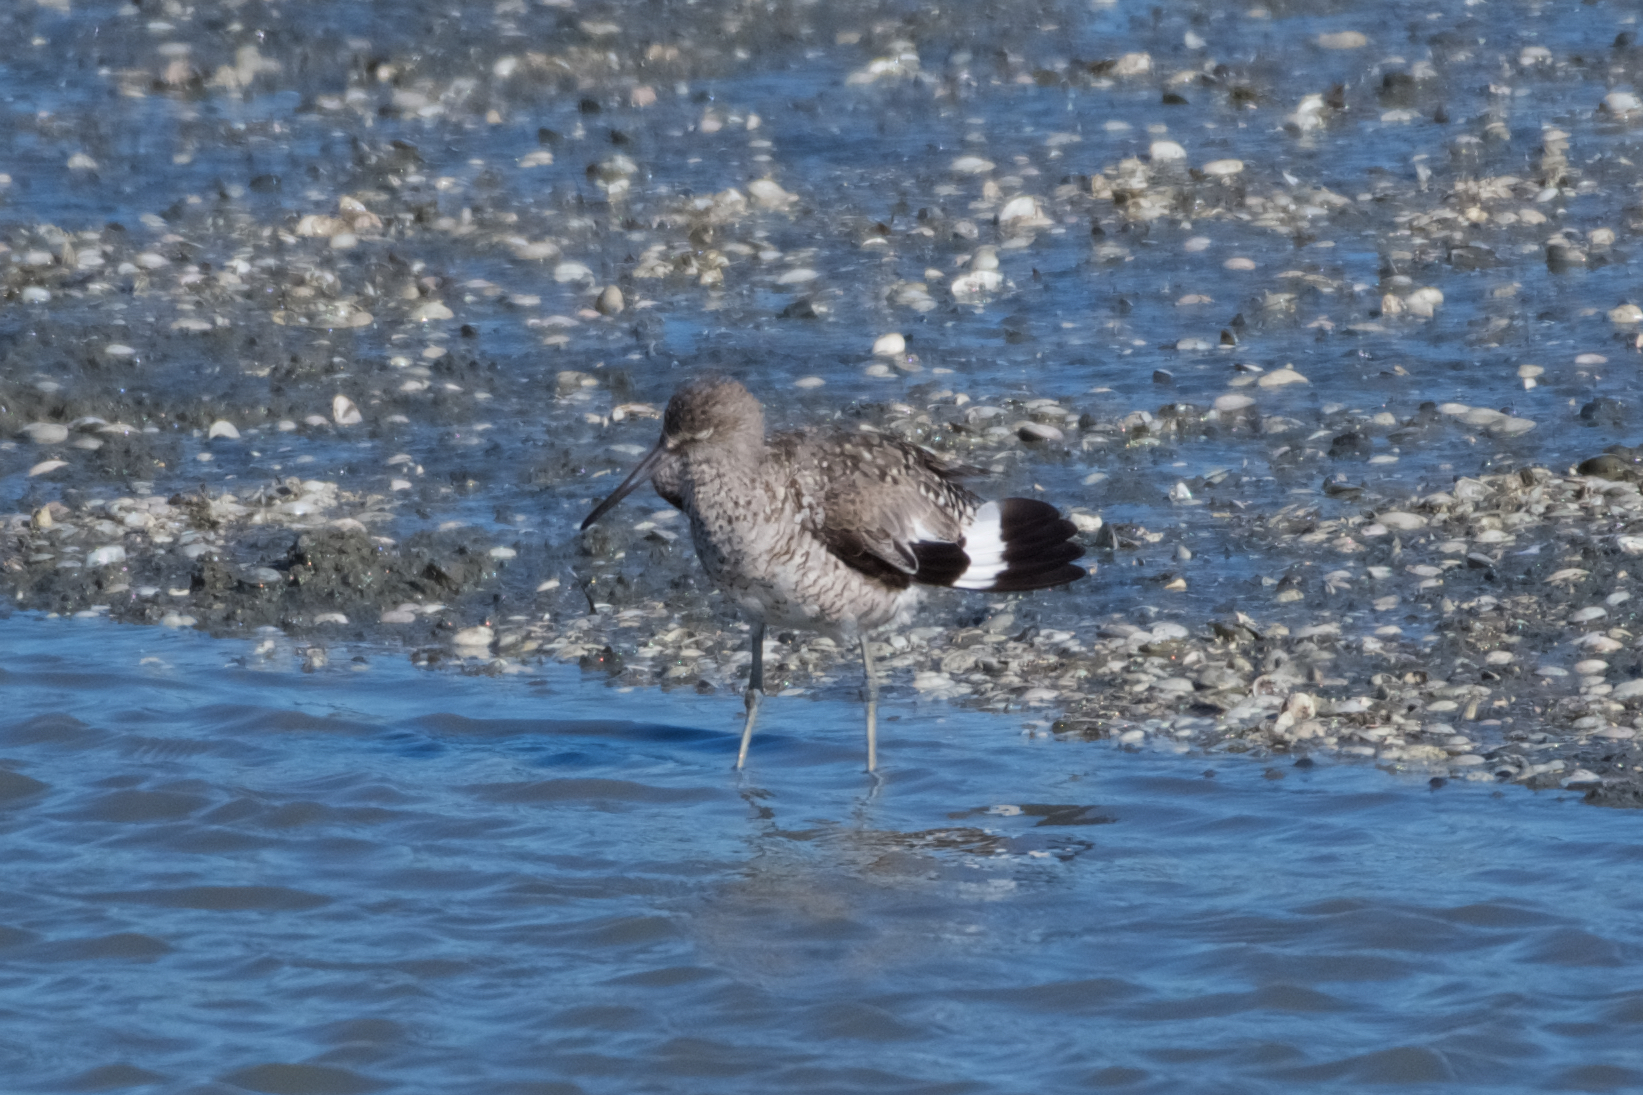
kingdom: Animalia
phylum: Chordata
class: Aves
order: Charadriiformes
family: Scolopacidae
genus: Tringa
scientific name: Tringa semipalmata
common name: Willet
